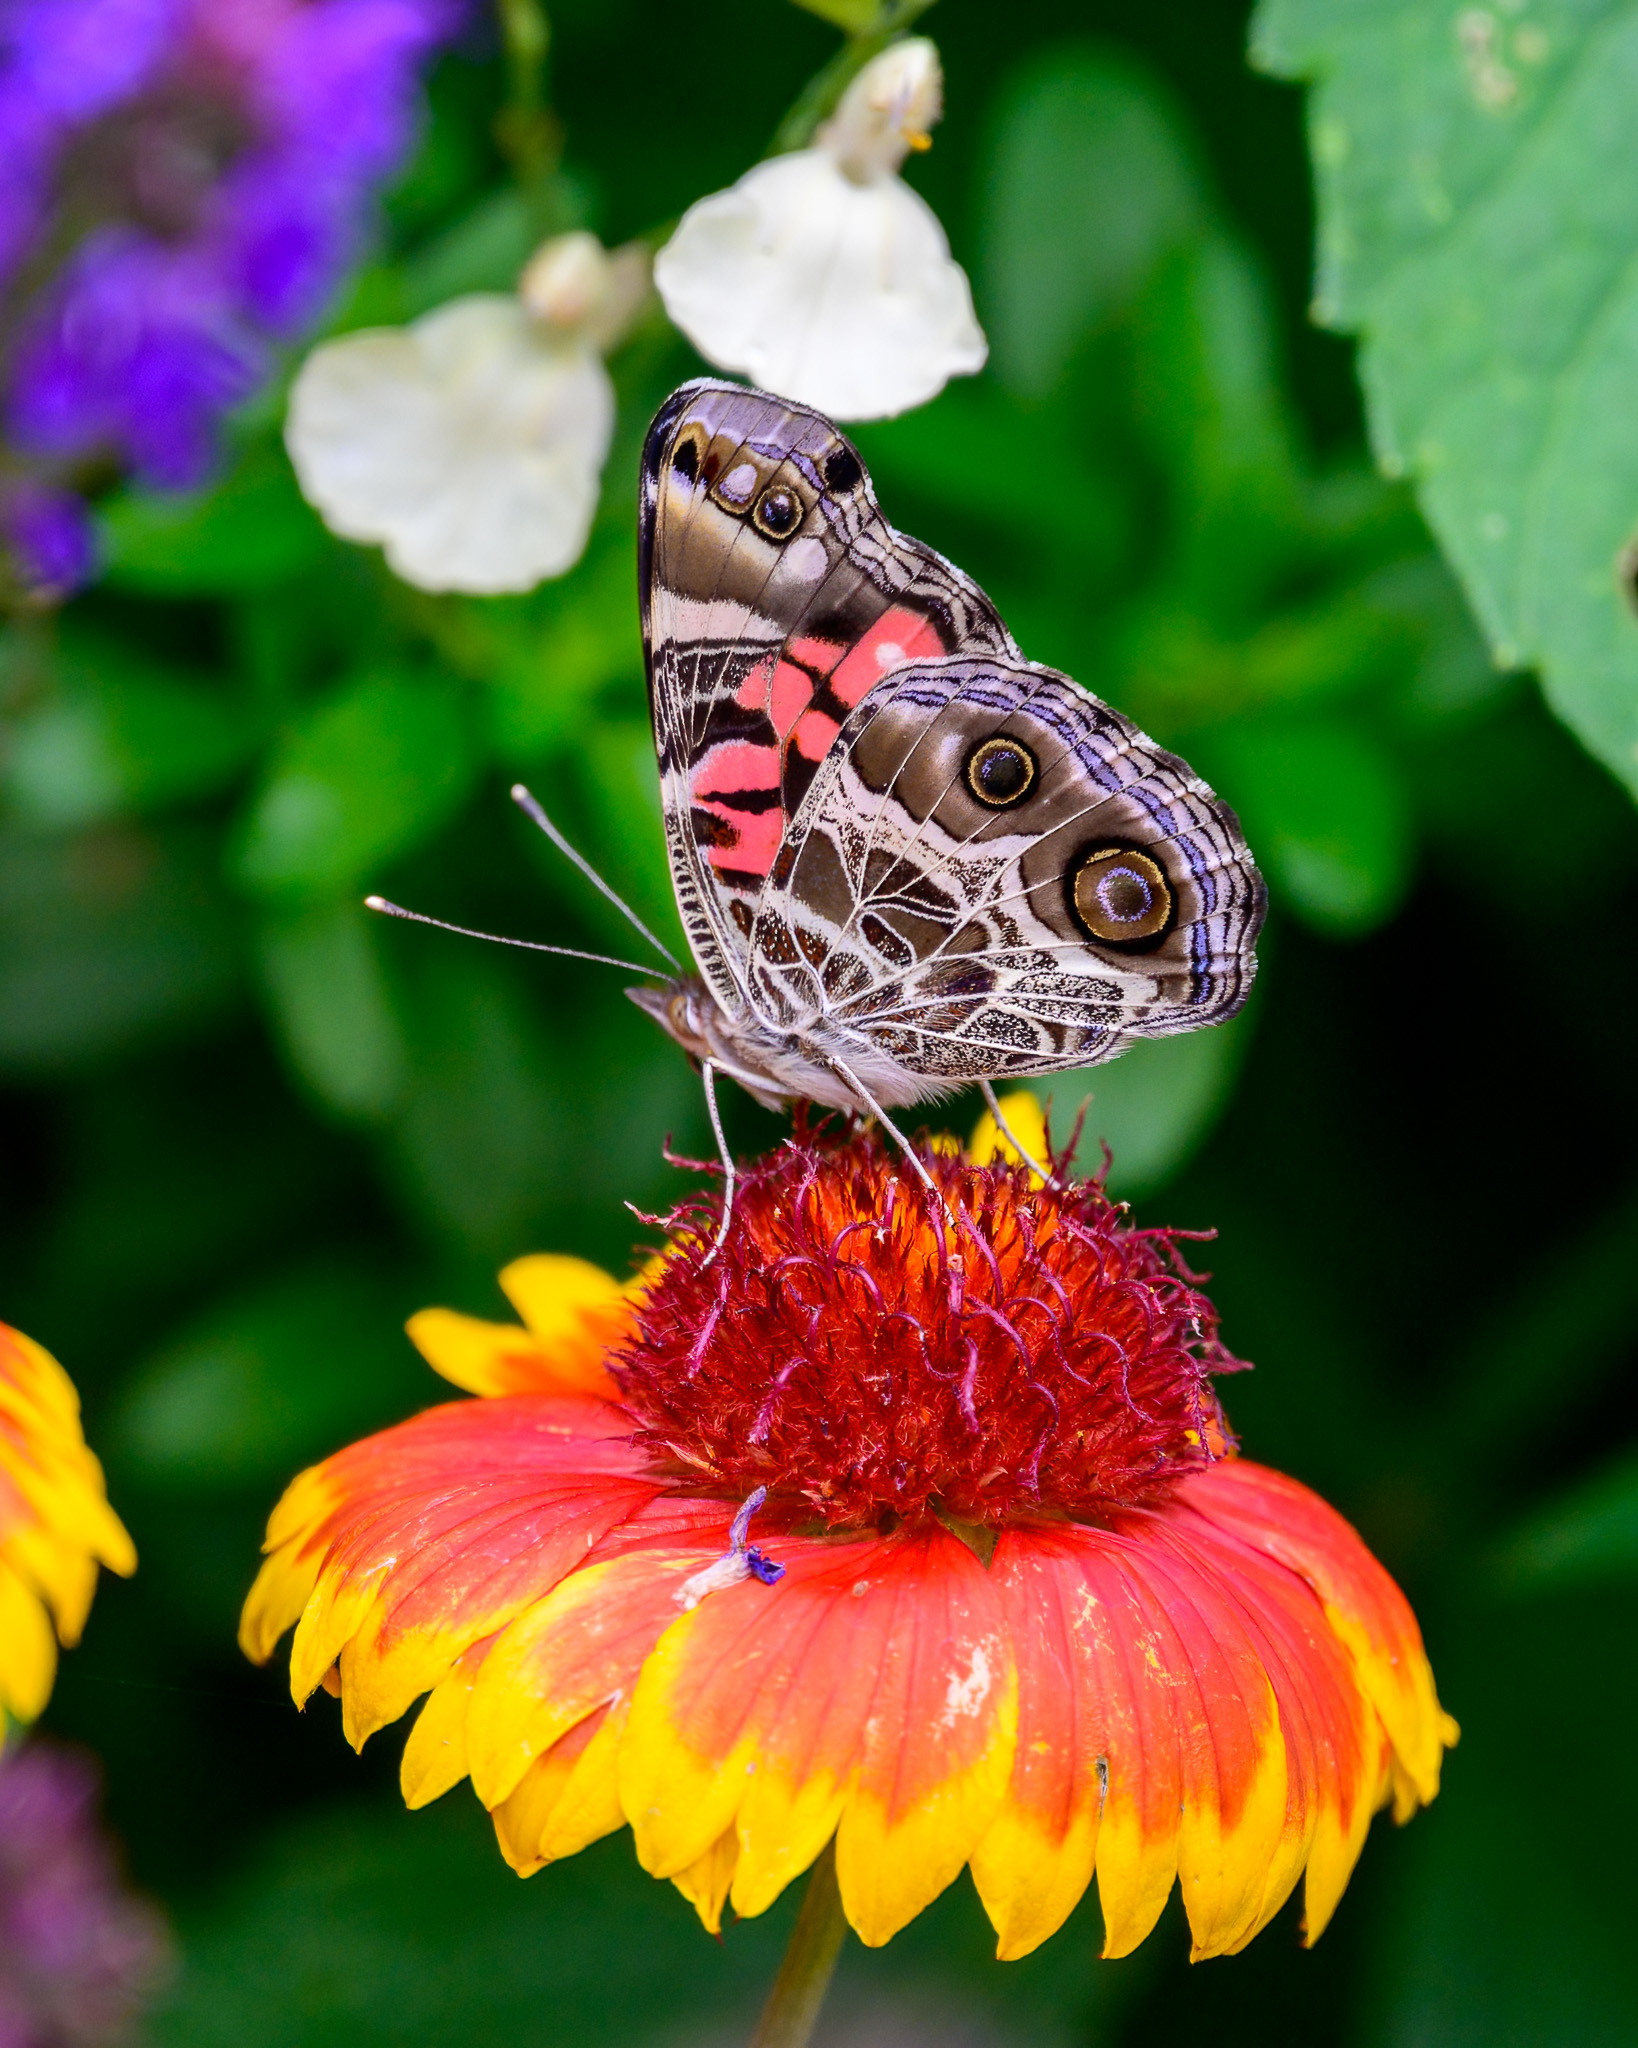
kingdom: Animalia
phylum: Arthropoda
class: Insecta
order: Lepidoptera
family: Nymphalidae
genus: Vanessa
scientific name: Vanessa virginiensis
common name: American lady
